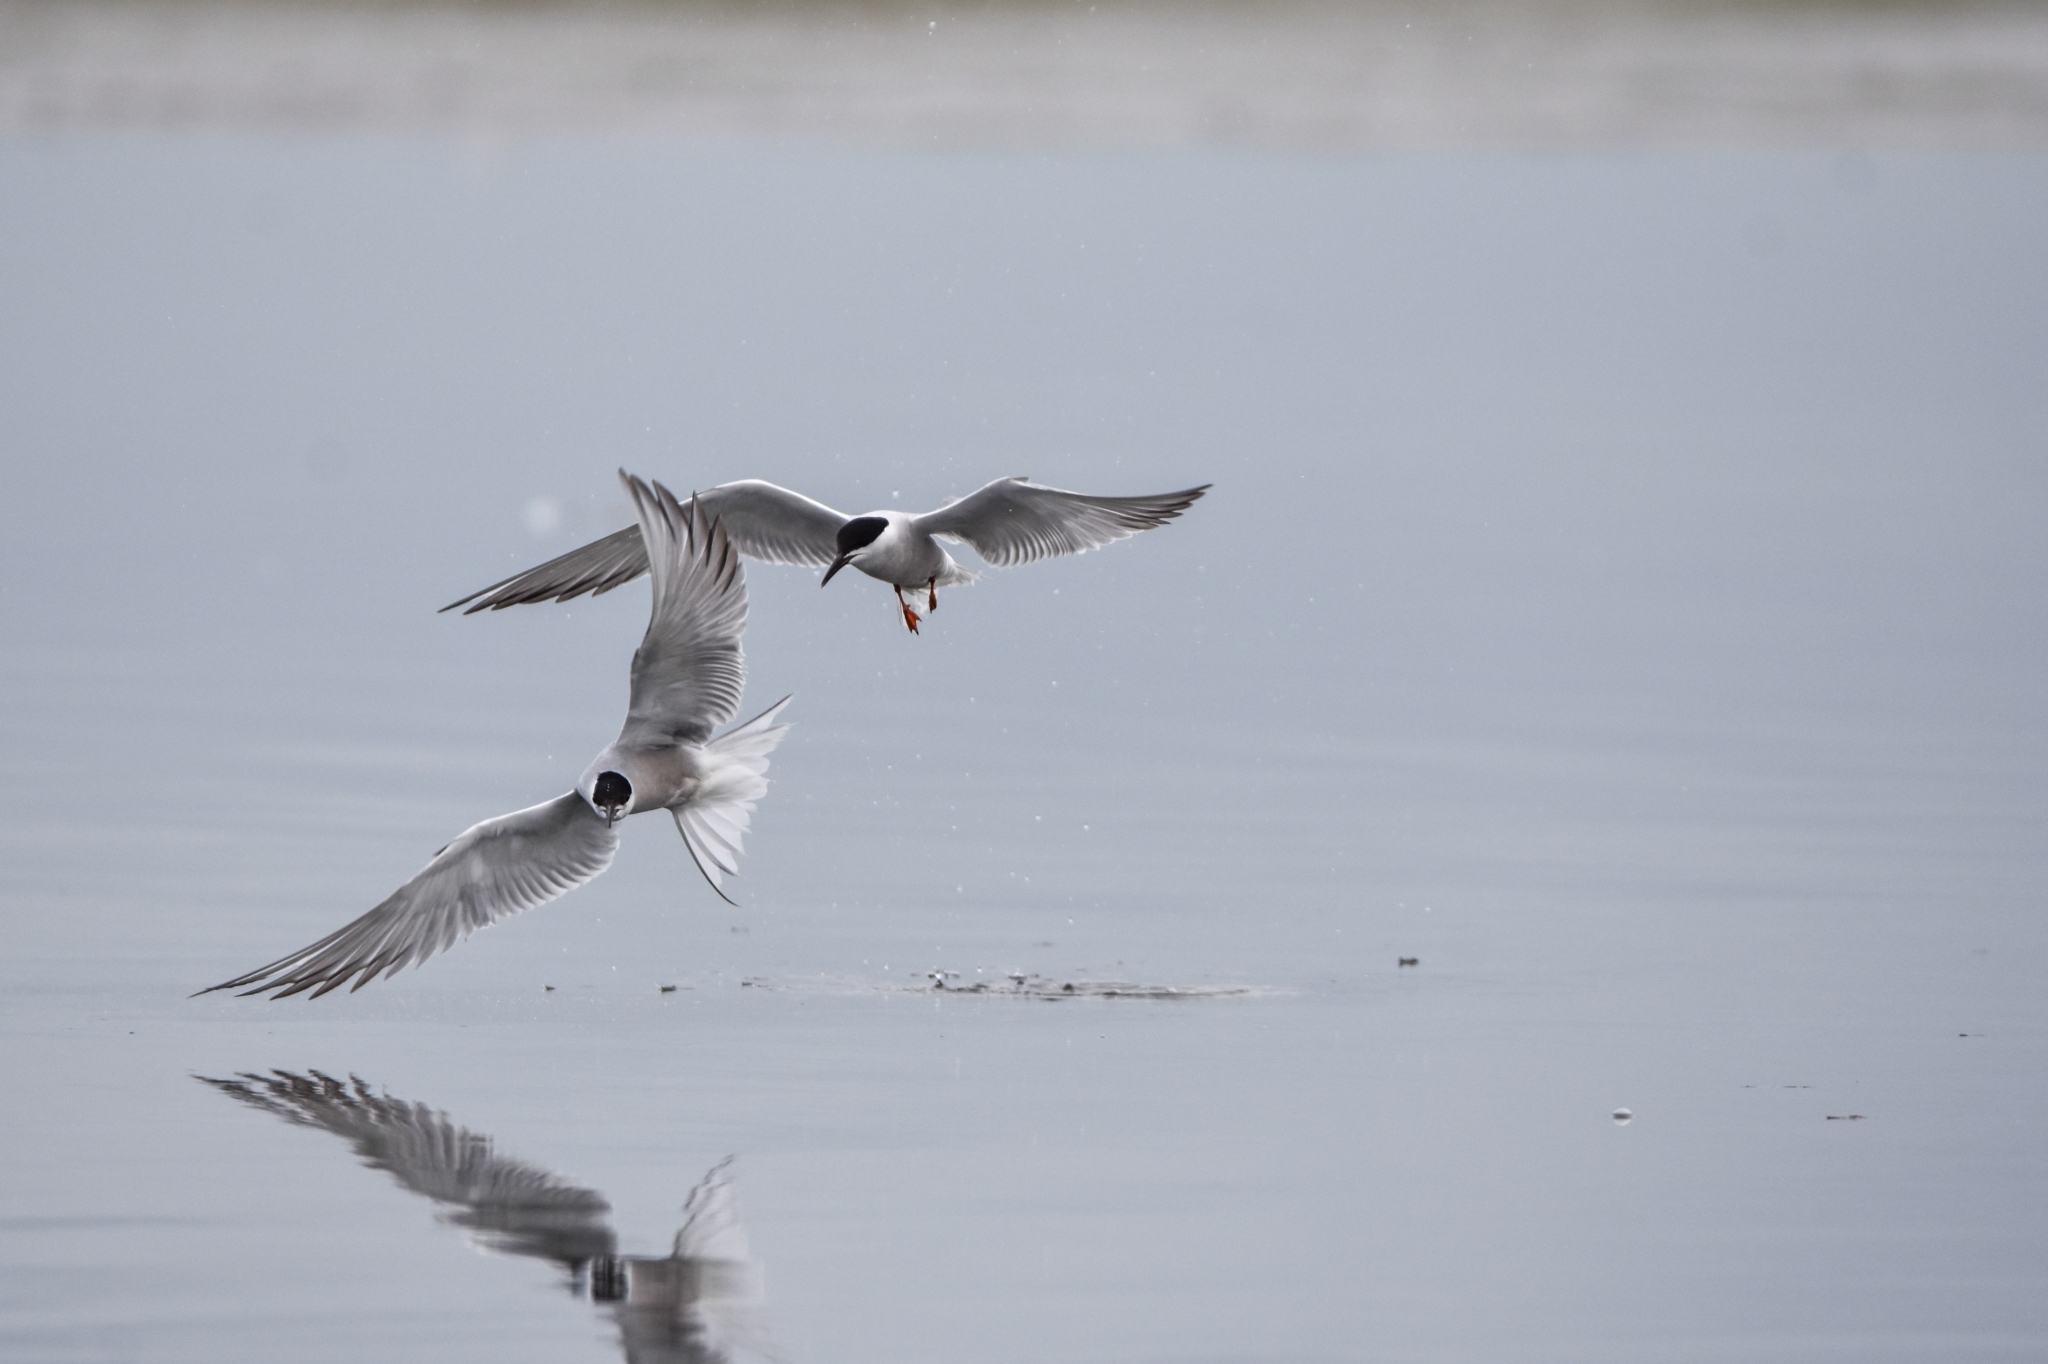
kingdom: Animalia
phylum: Chordata
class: Aves
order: Charadriiformes
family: Laridae
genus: Sterna
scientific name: Sterna hirundo
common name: Common tern
